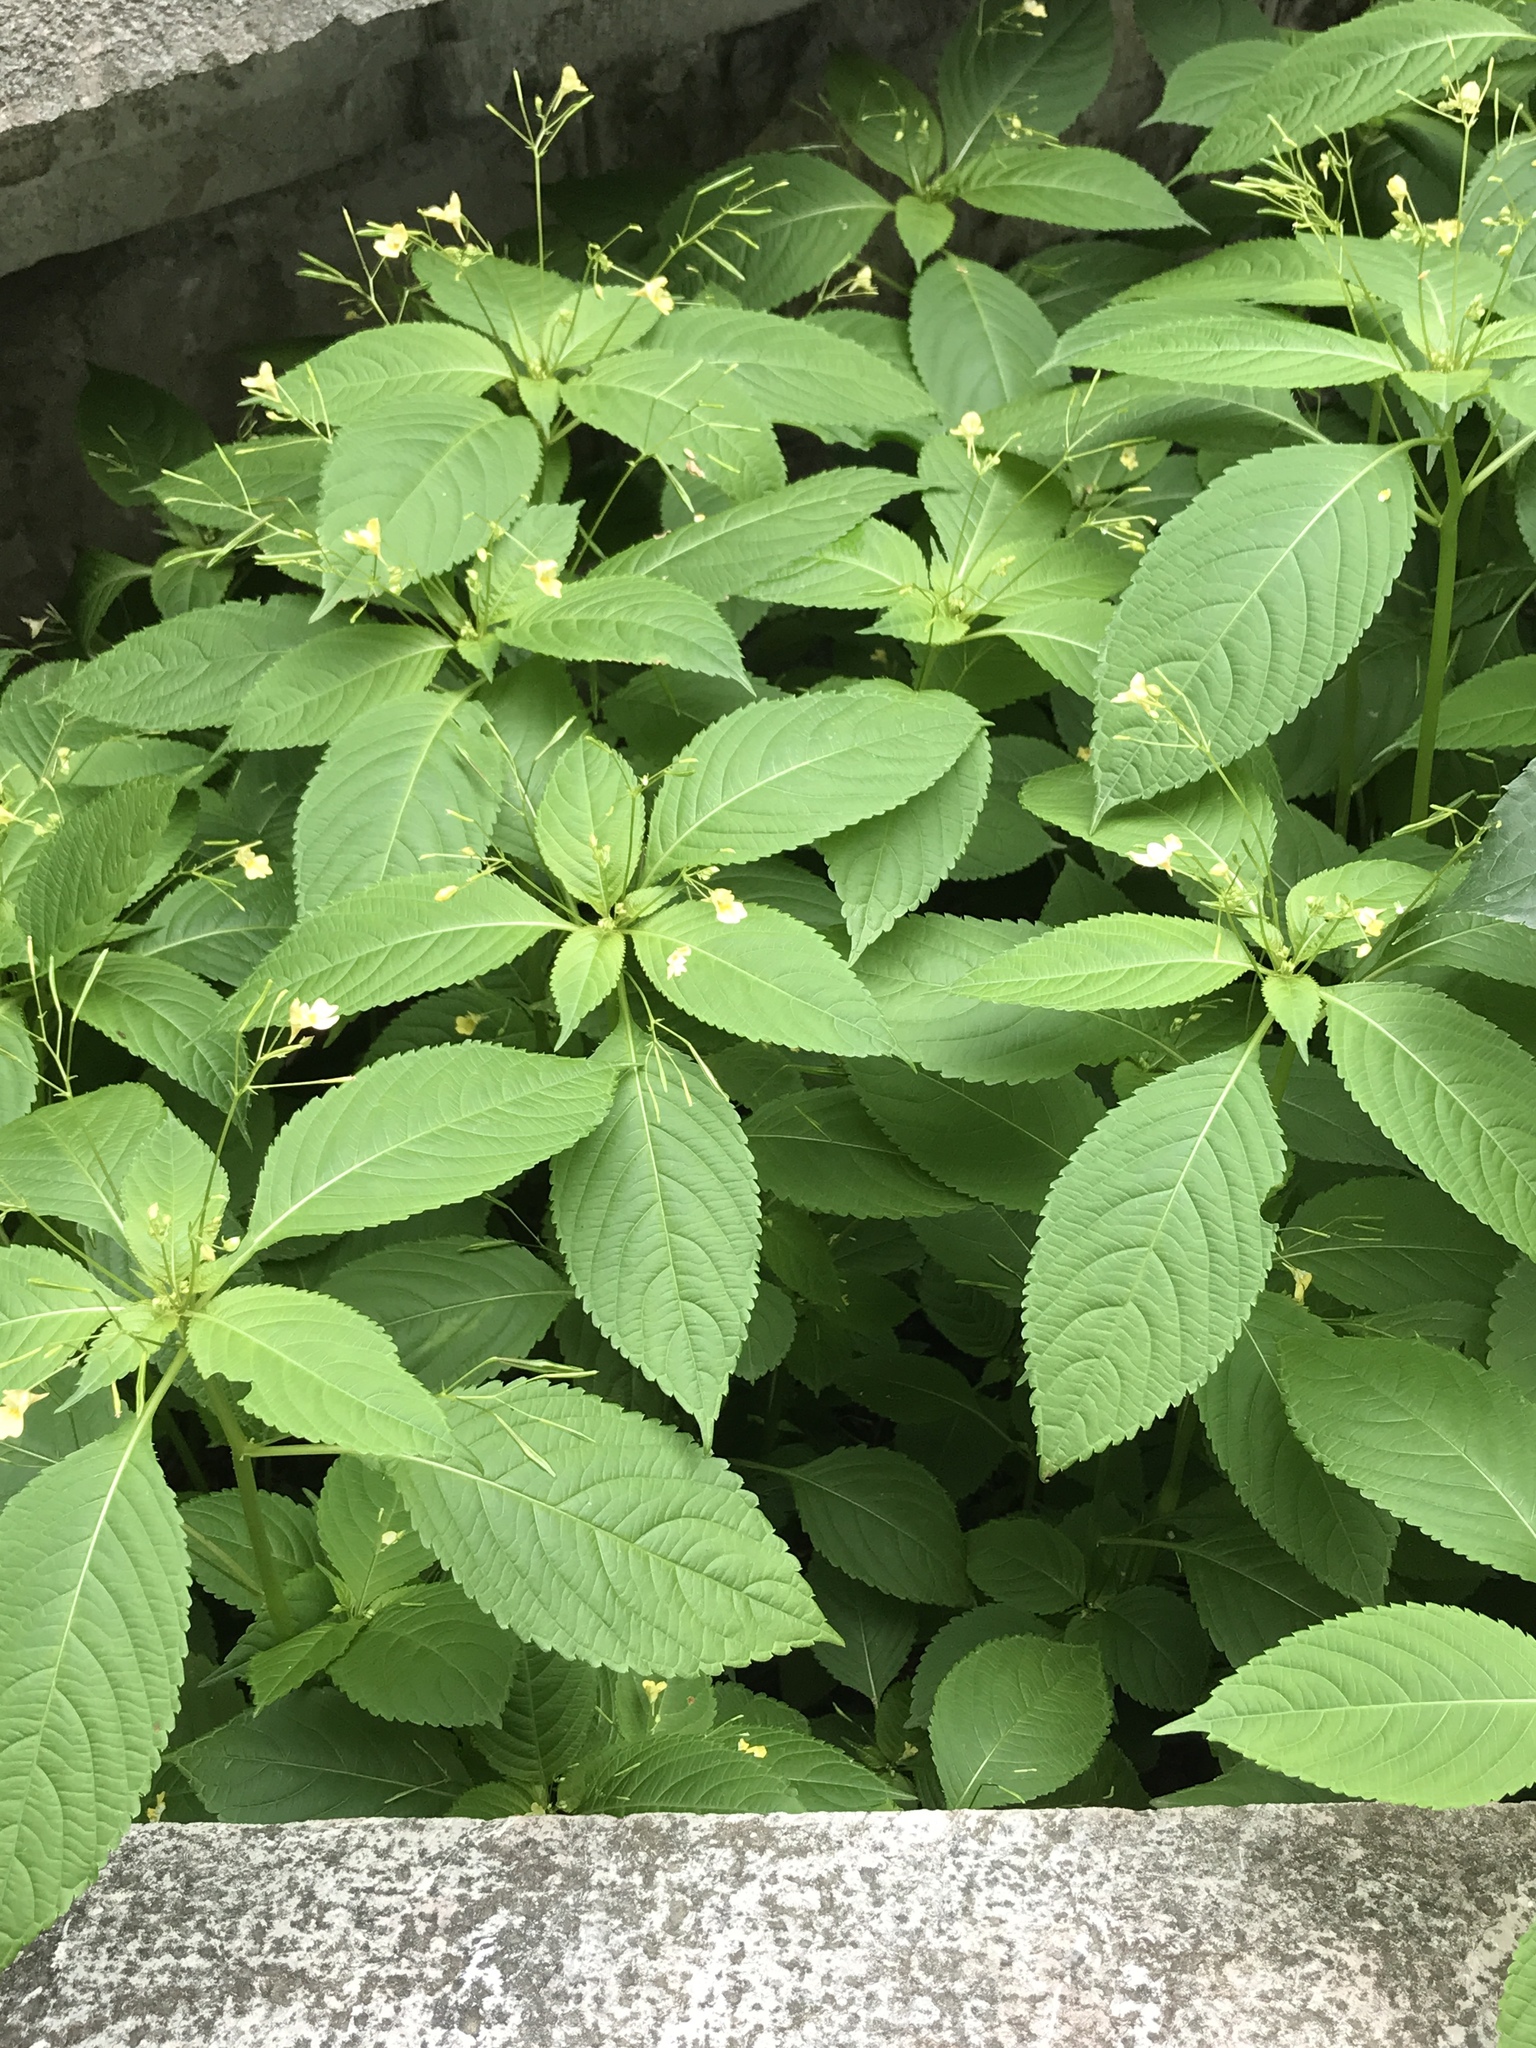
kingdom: Plantae
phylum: Tracheophyta
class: Magnoliopsida
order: Ericales
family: Balsaminaceae
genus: Impatiens
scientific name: Impatiens parviflora
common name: Small balsam
